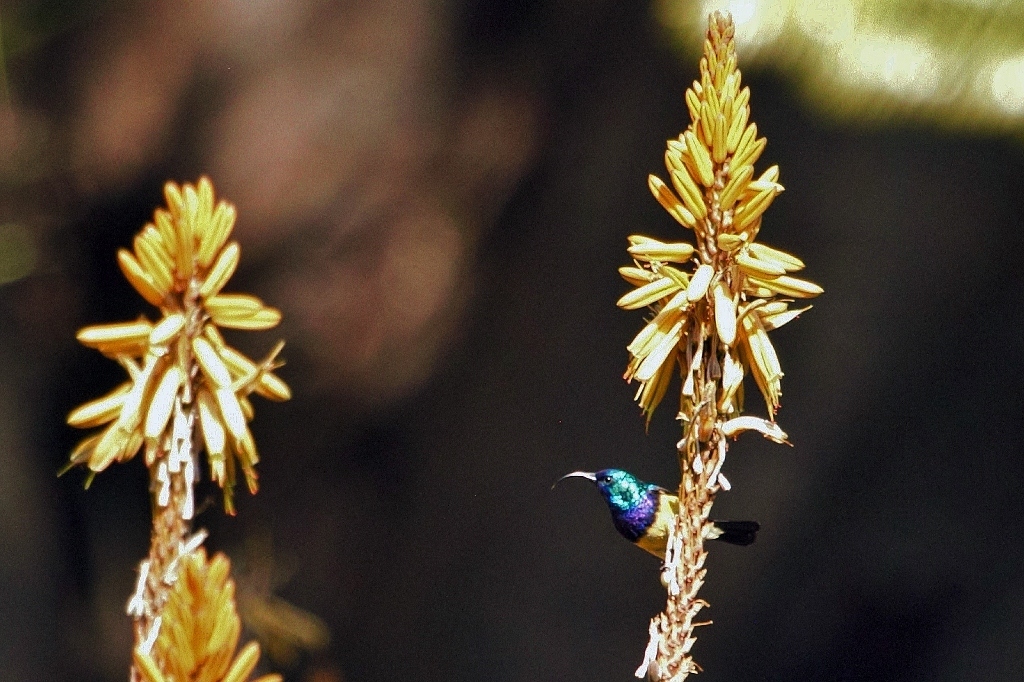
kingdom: Animalia
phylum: Chordata
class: Aves
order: Passeriformes
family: Nectariniidae
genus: Cinnyris
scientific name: Cinnyris venustus
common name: Variable sunbird
